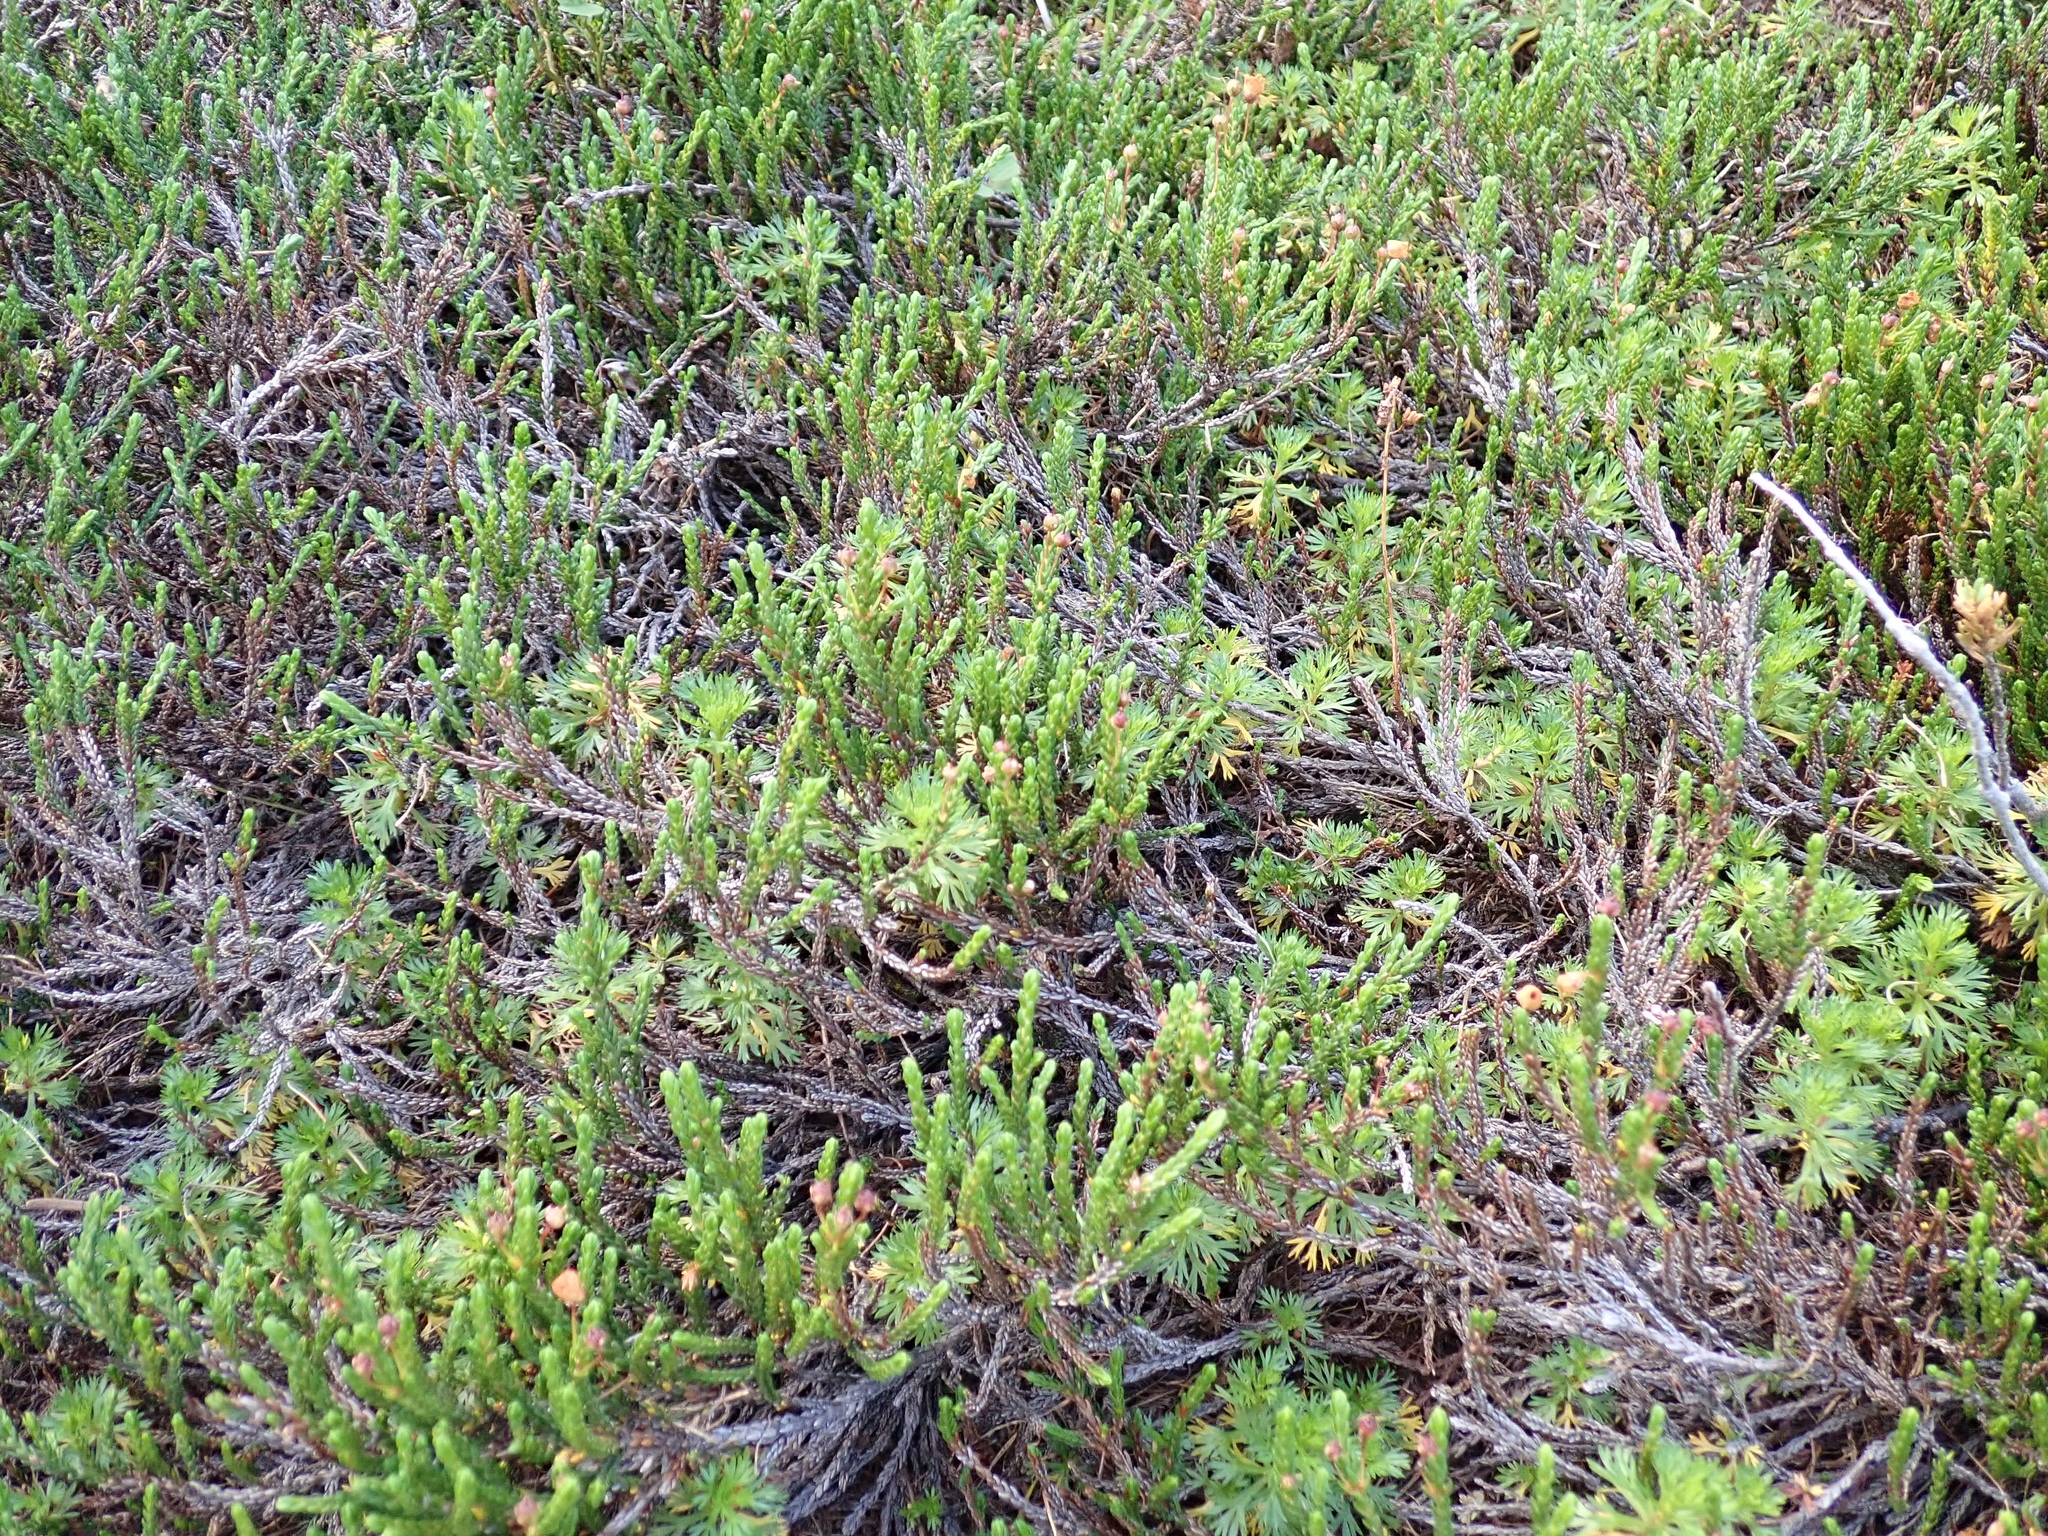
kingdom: Plantae
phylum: Tracheophyta
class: Magnoliopsida
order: Ericales
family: Ericaceae
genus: Cassiope
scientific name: Cassiope mertensiana
